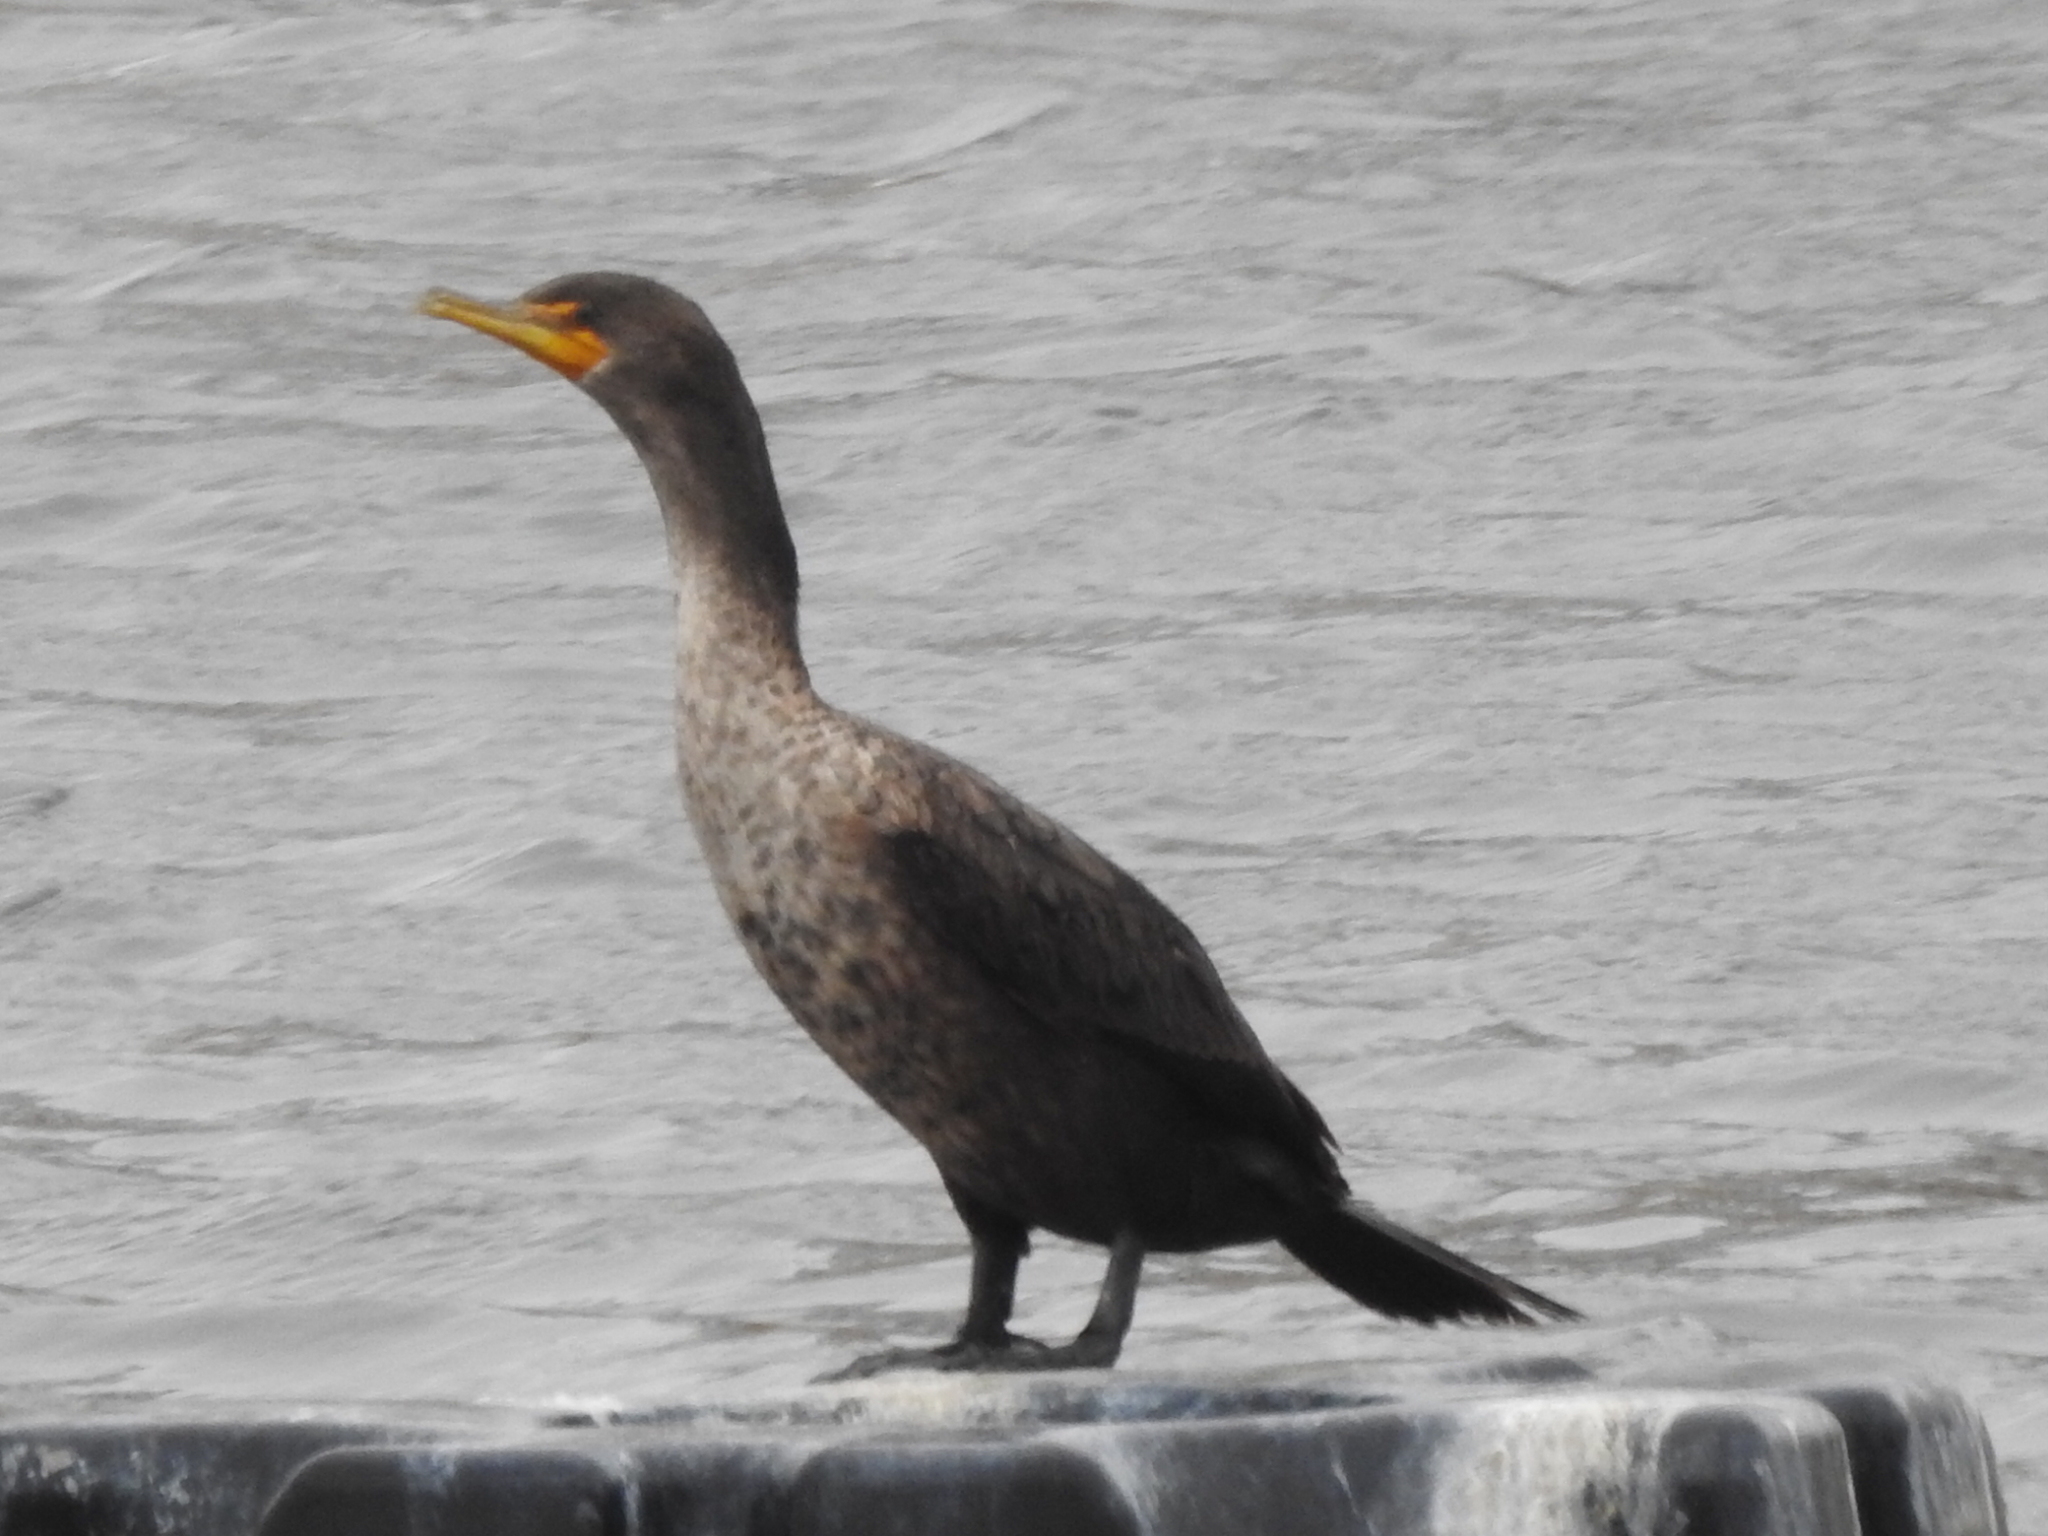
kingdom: Animalia
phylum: Chordata
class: Aves
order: Suliformes
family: Phalacrocoracidae
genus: Phalacrocorax
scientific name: Phalacrocorax auritus
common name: Double-crested cormorant
